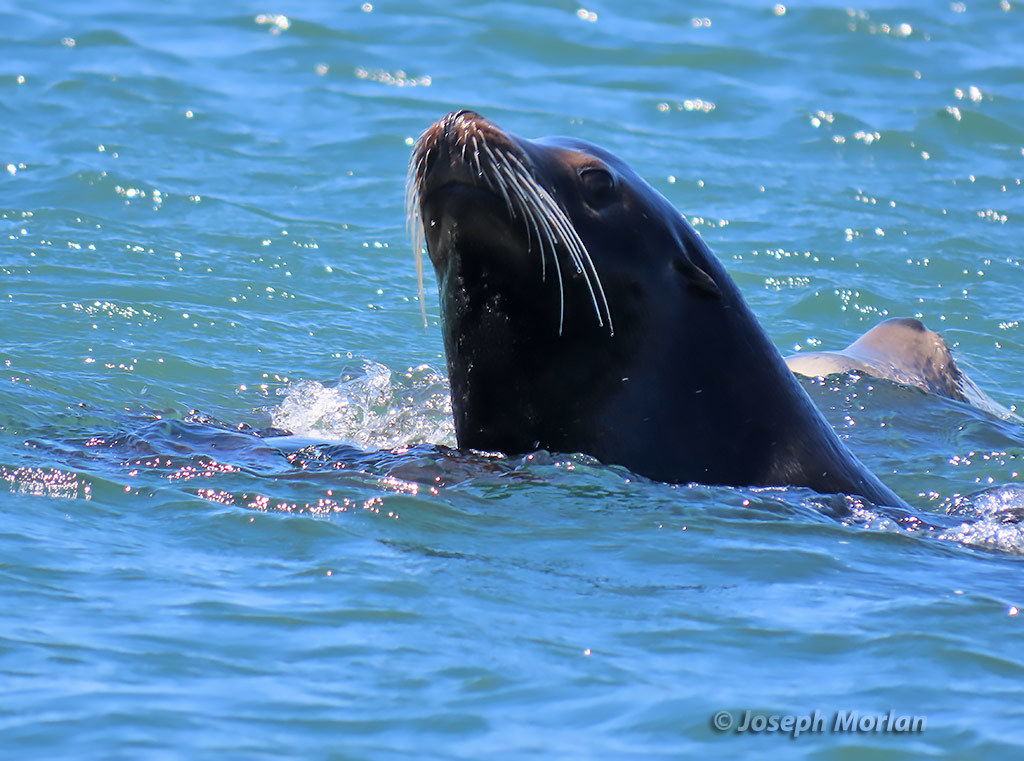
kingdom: Animalia
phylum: Chordata
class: Mammalia
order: Carnivora
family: Otariidae
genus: Zalophus
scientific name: Zalophus californianus
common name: California sea lion
